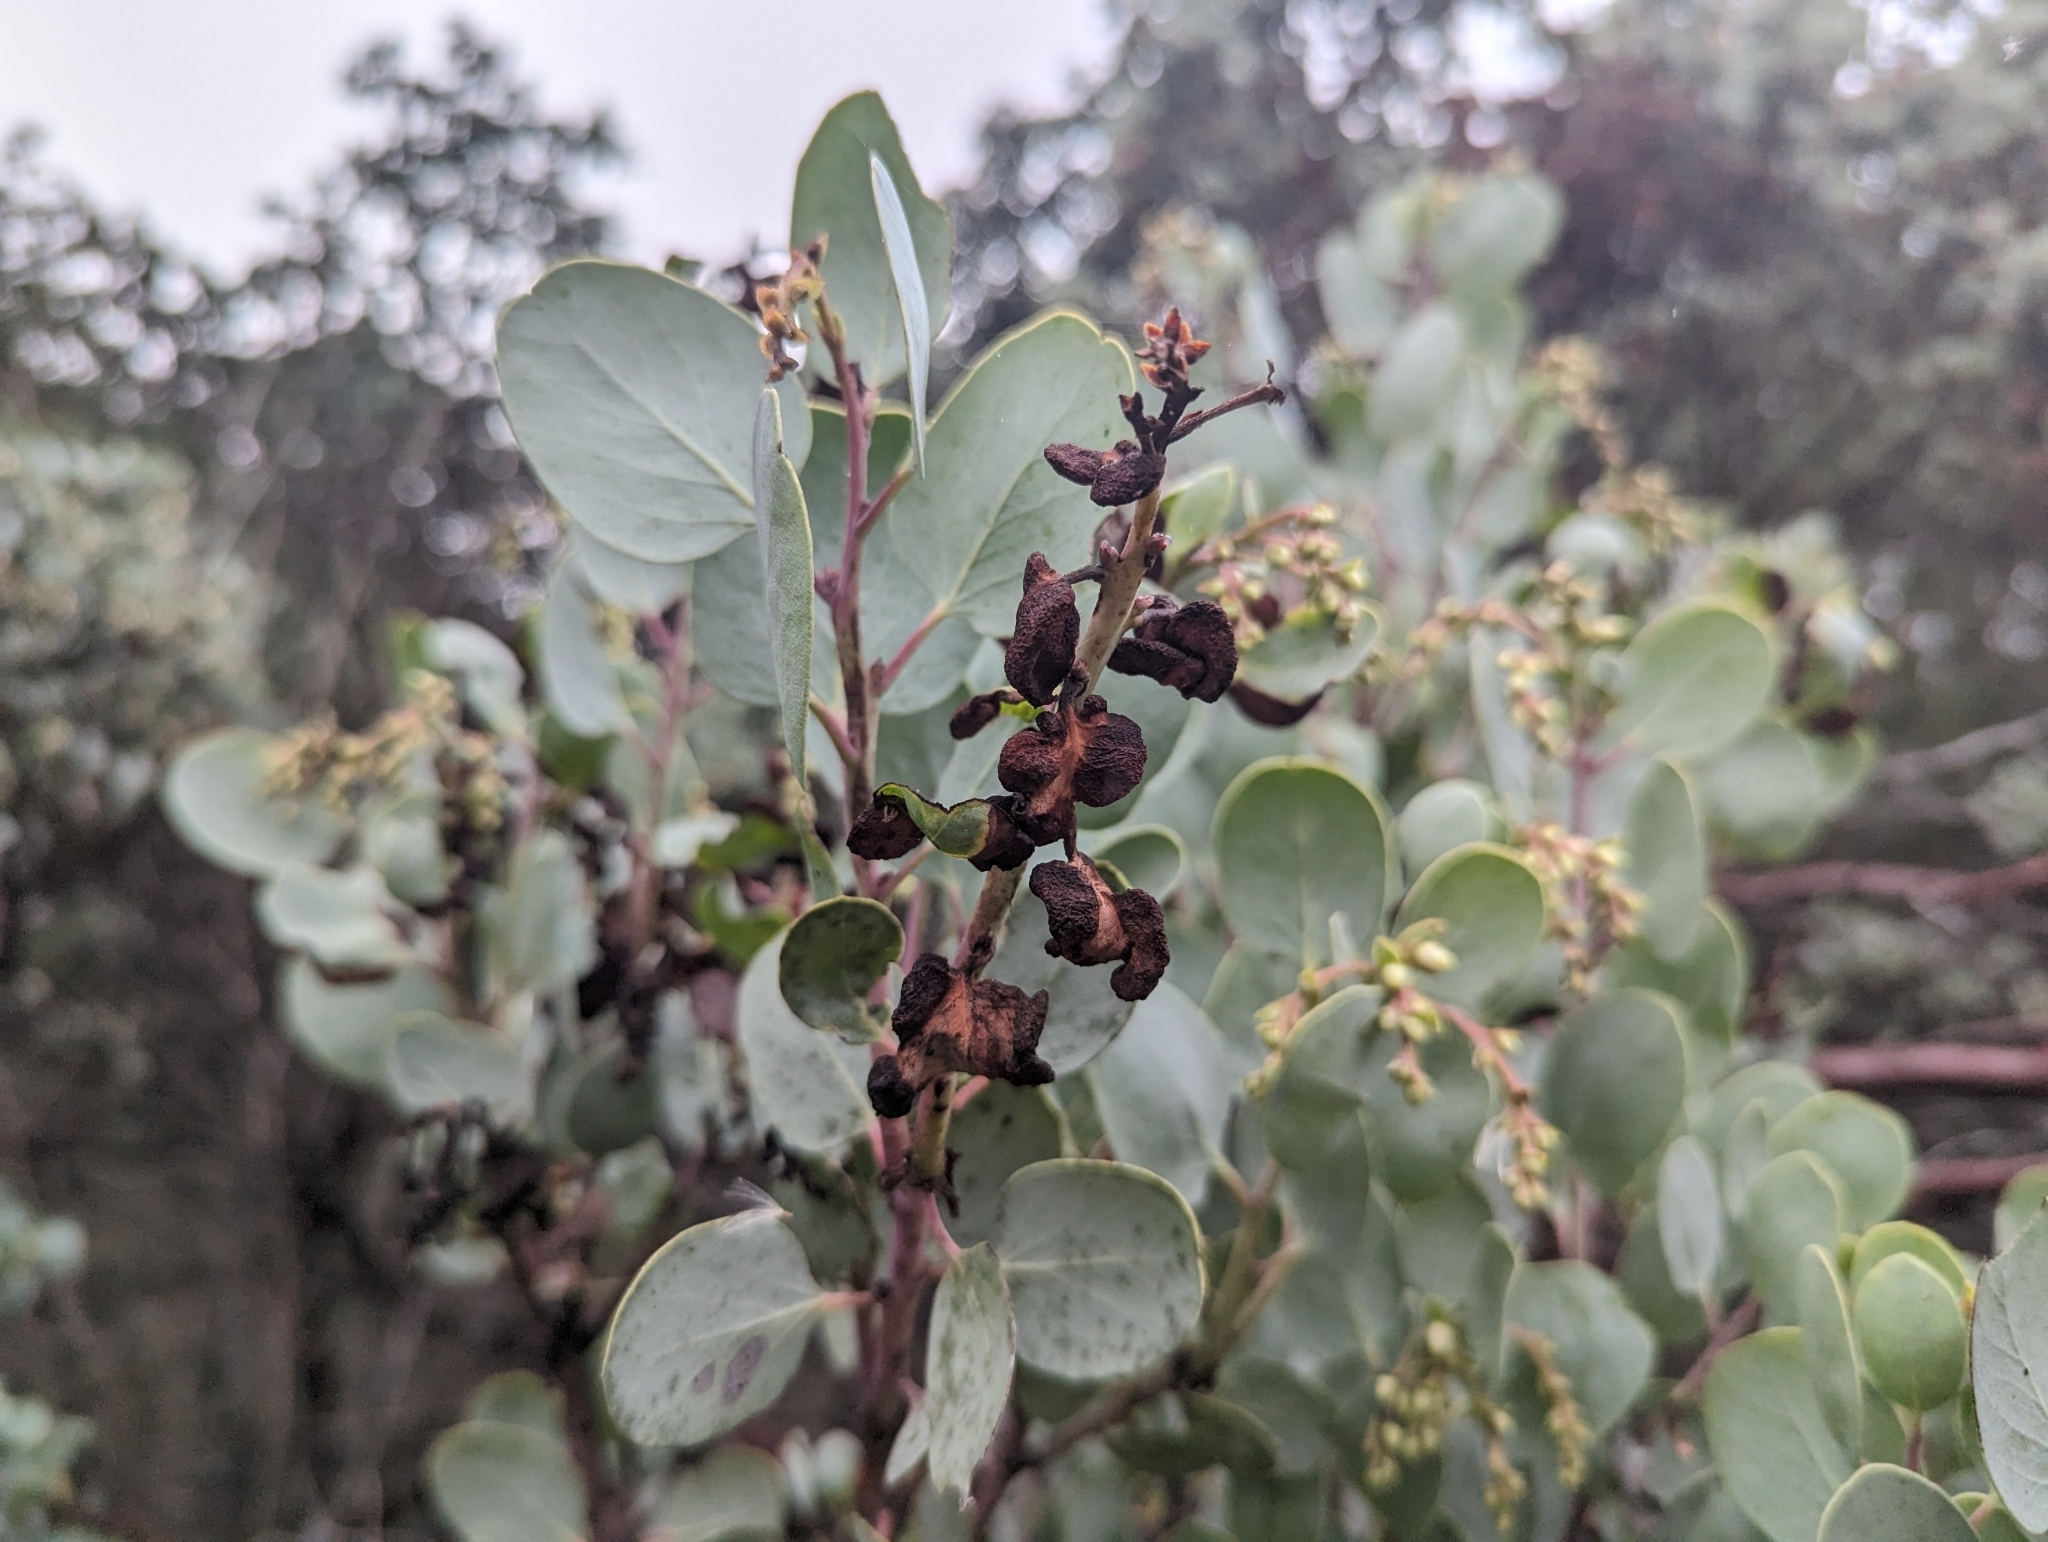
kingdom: Plantae
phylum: Tracheophyta
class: Magnoliopsida
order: Ericales
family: Ericaceae
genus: Arctostaphylos
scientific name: Arctostaphylos glauca
